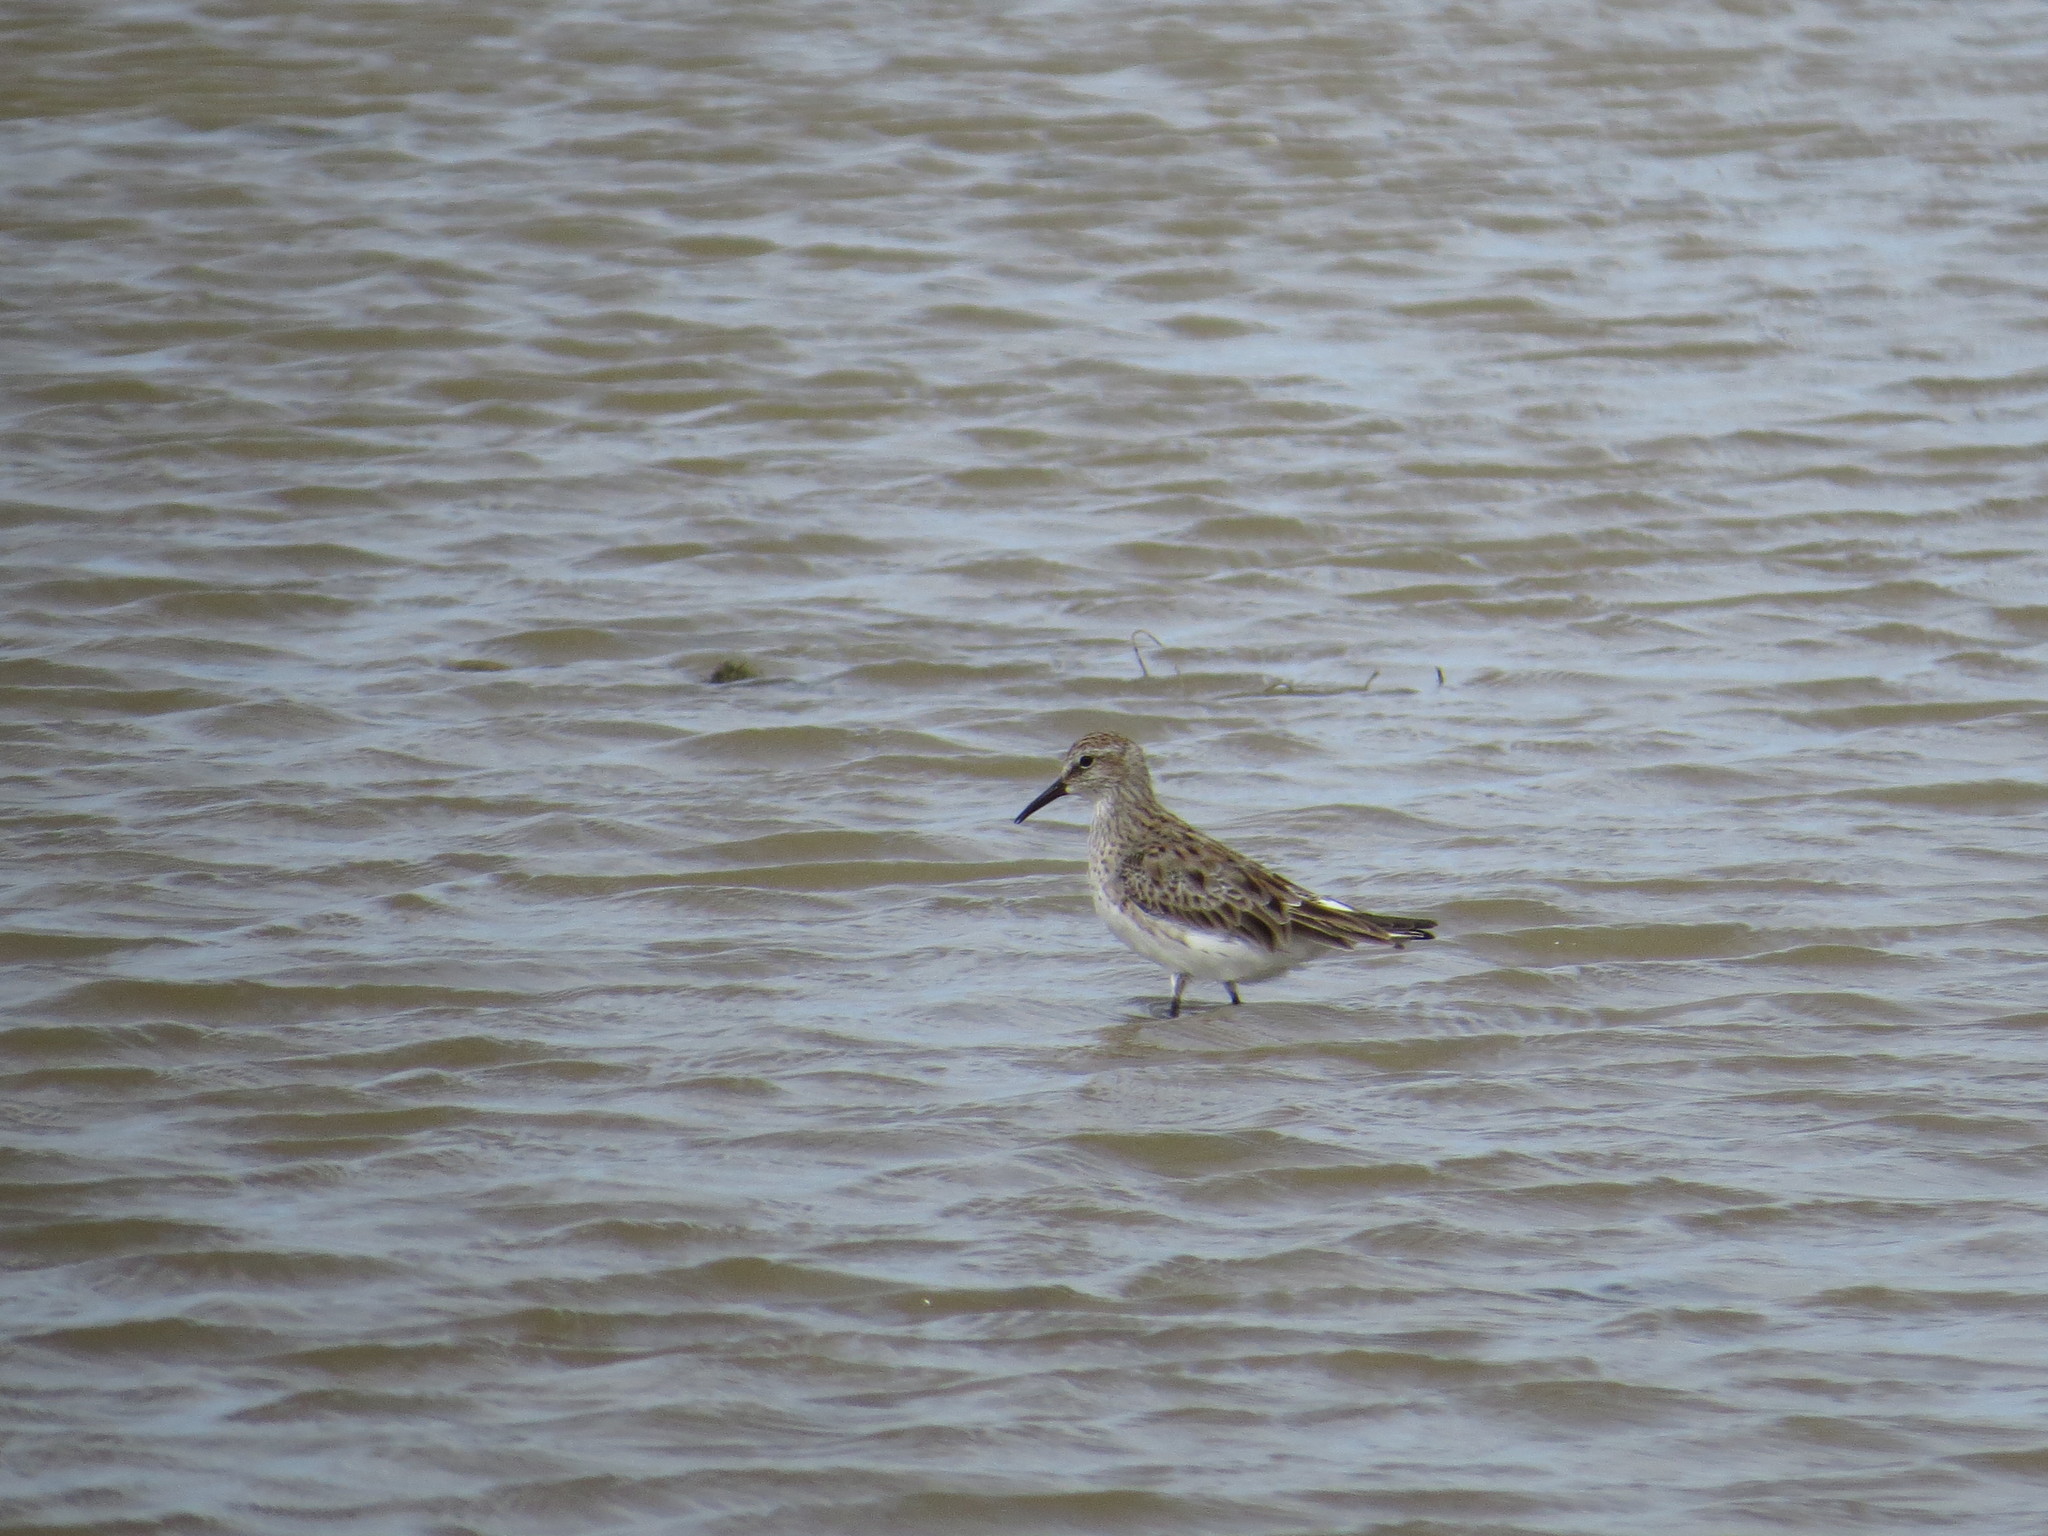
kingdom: Animalia
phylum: Chordata
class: Aves
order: Charadriiformes
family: Scolopacidae
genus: Calidris
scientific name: Calidris fuscicollis
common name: White-rumped sandpiper
